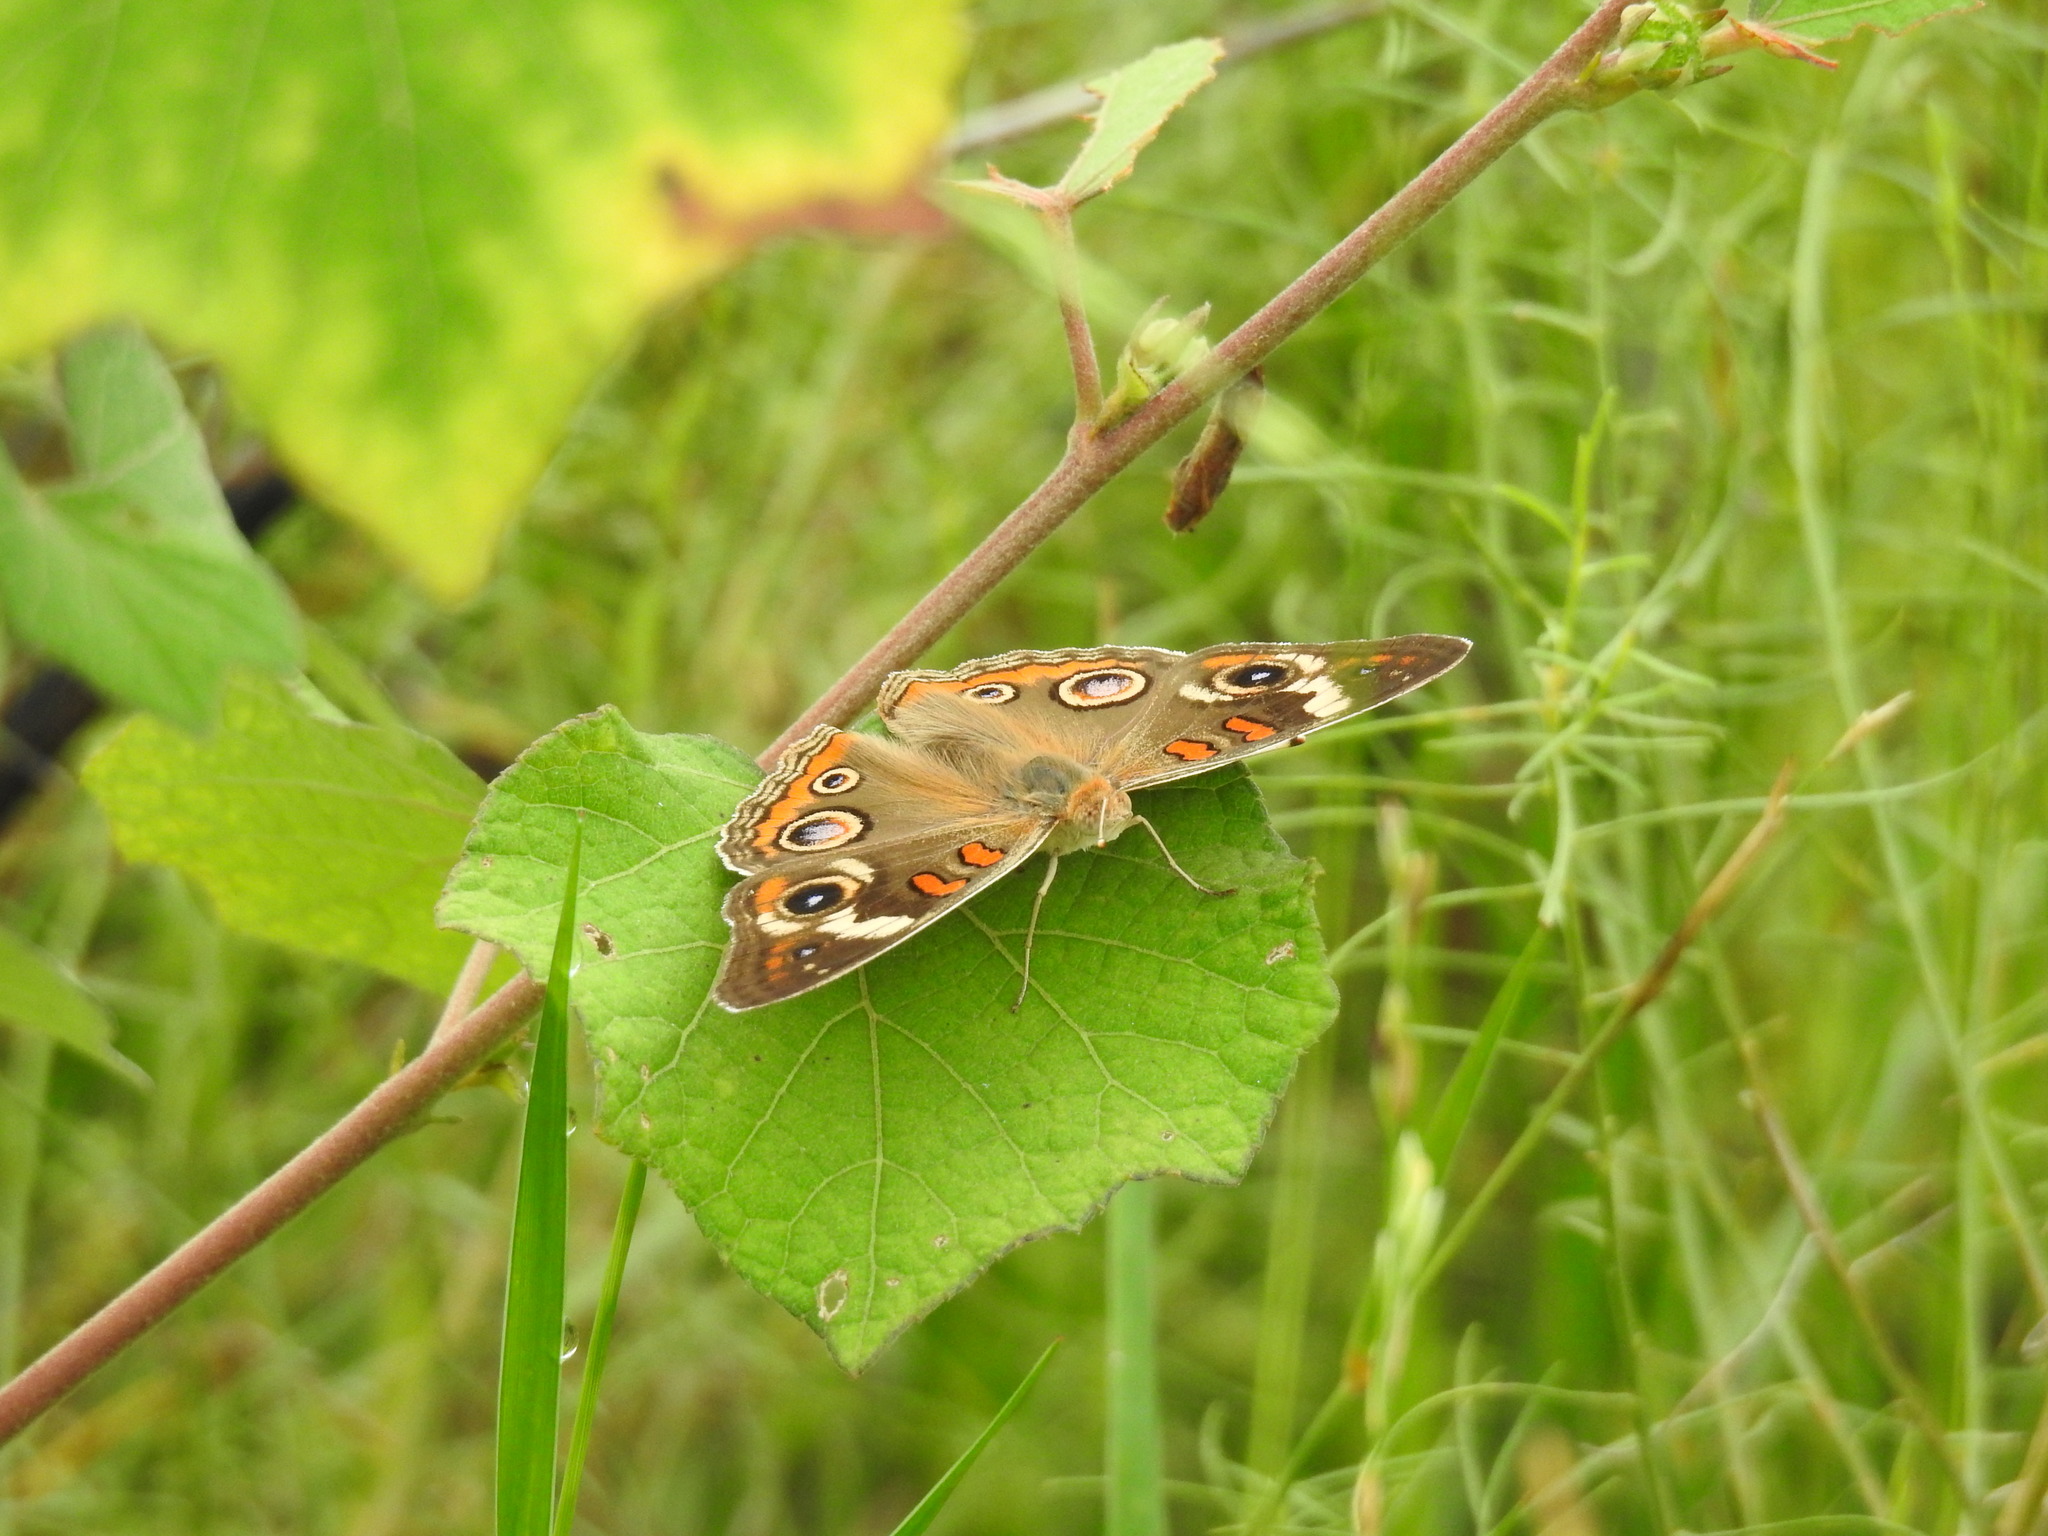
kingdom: Animalia
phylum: Arthropoda
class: Insecta
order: Lepidoptera
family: Nymphalidae
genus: Junonia
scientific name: Junonia coenia
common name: Common buckeye
